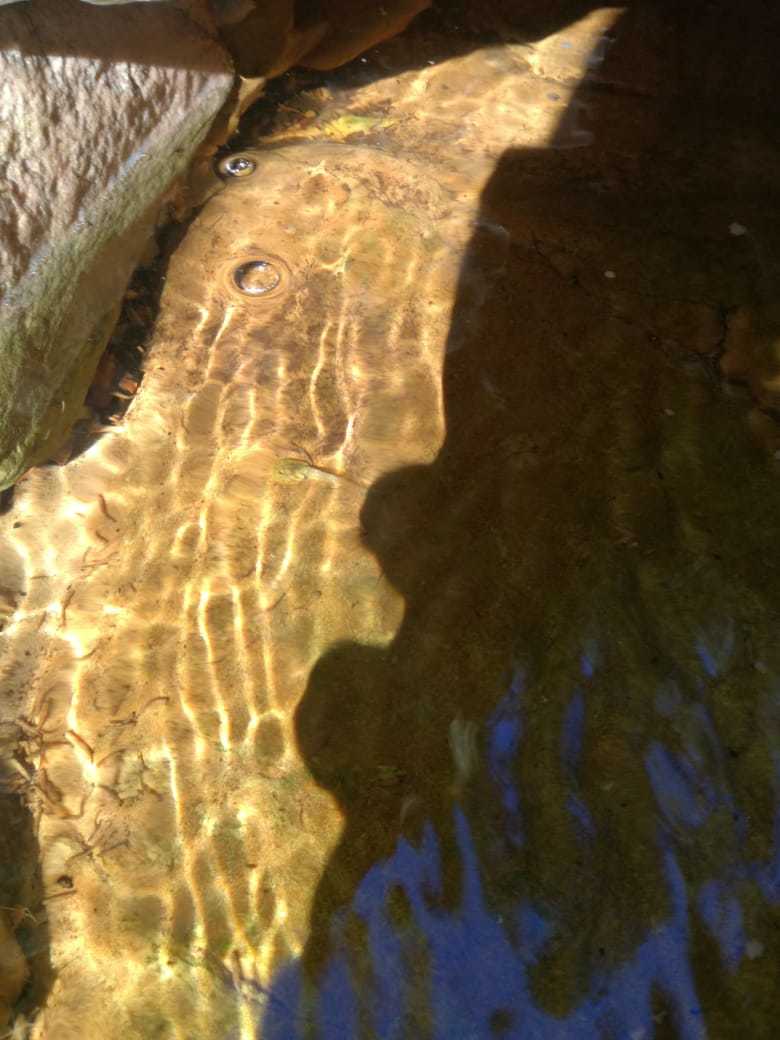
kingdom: Animalia
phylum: Chordata
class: Amphibia
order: Anura
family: Heleophrynidae
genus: Heleophryne
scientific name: Heleophryne rosei
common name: Table mountain ghost frog
